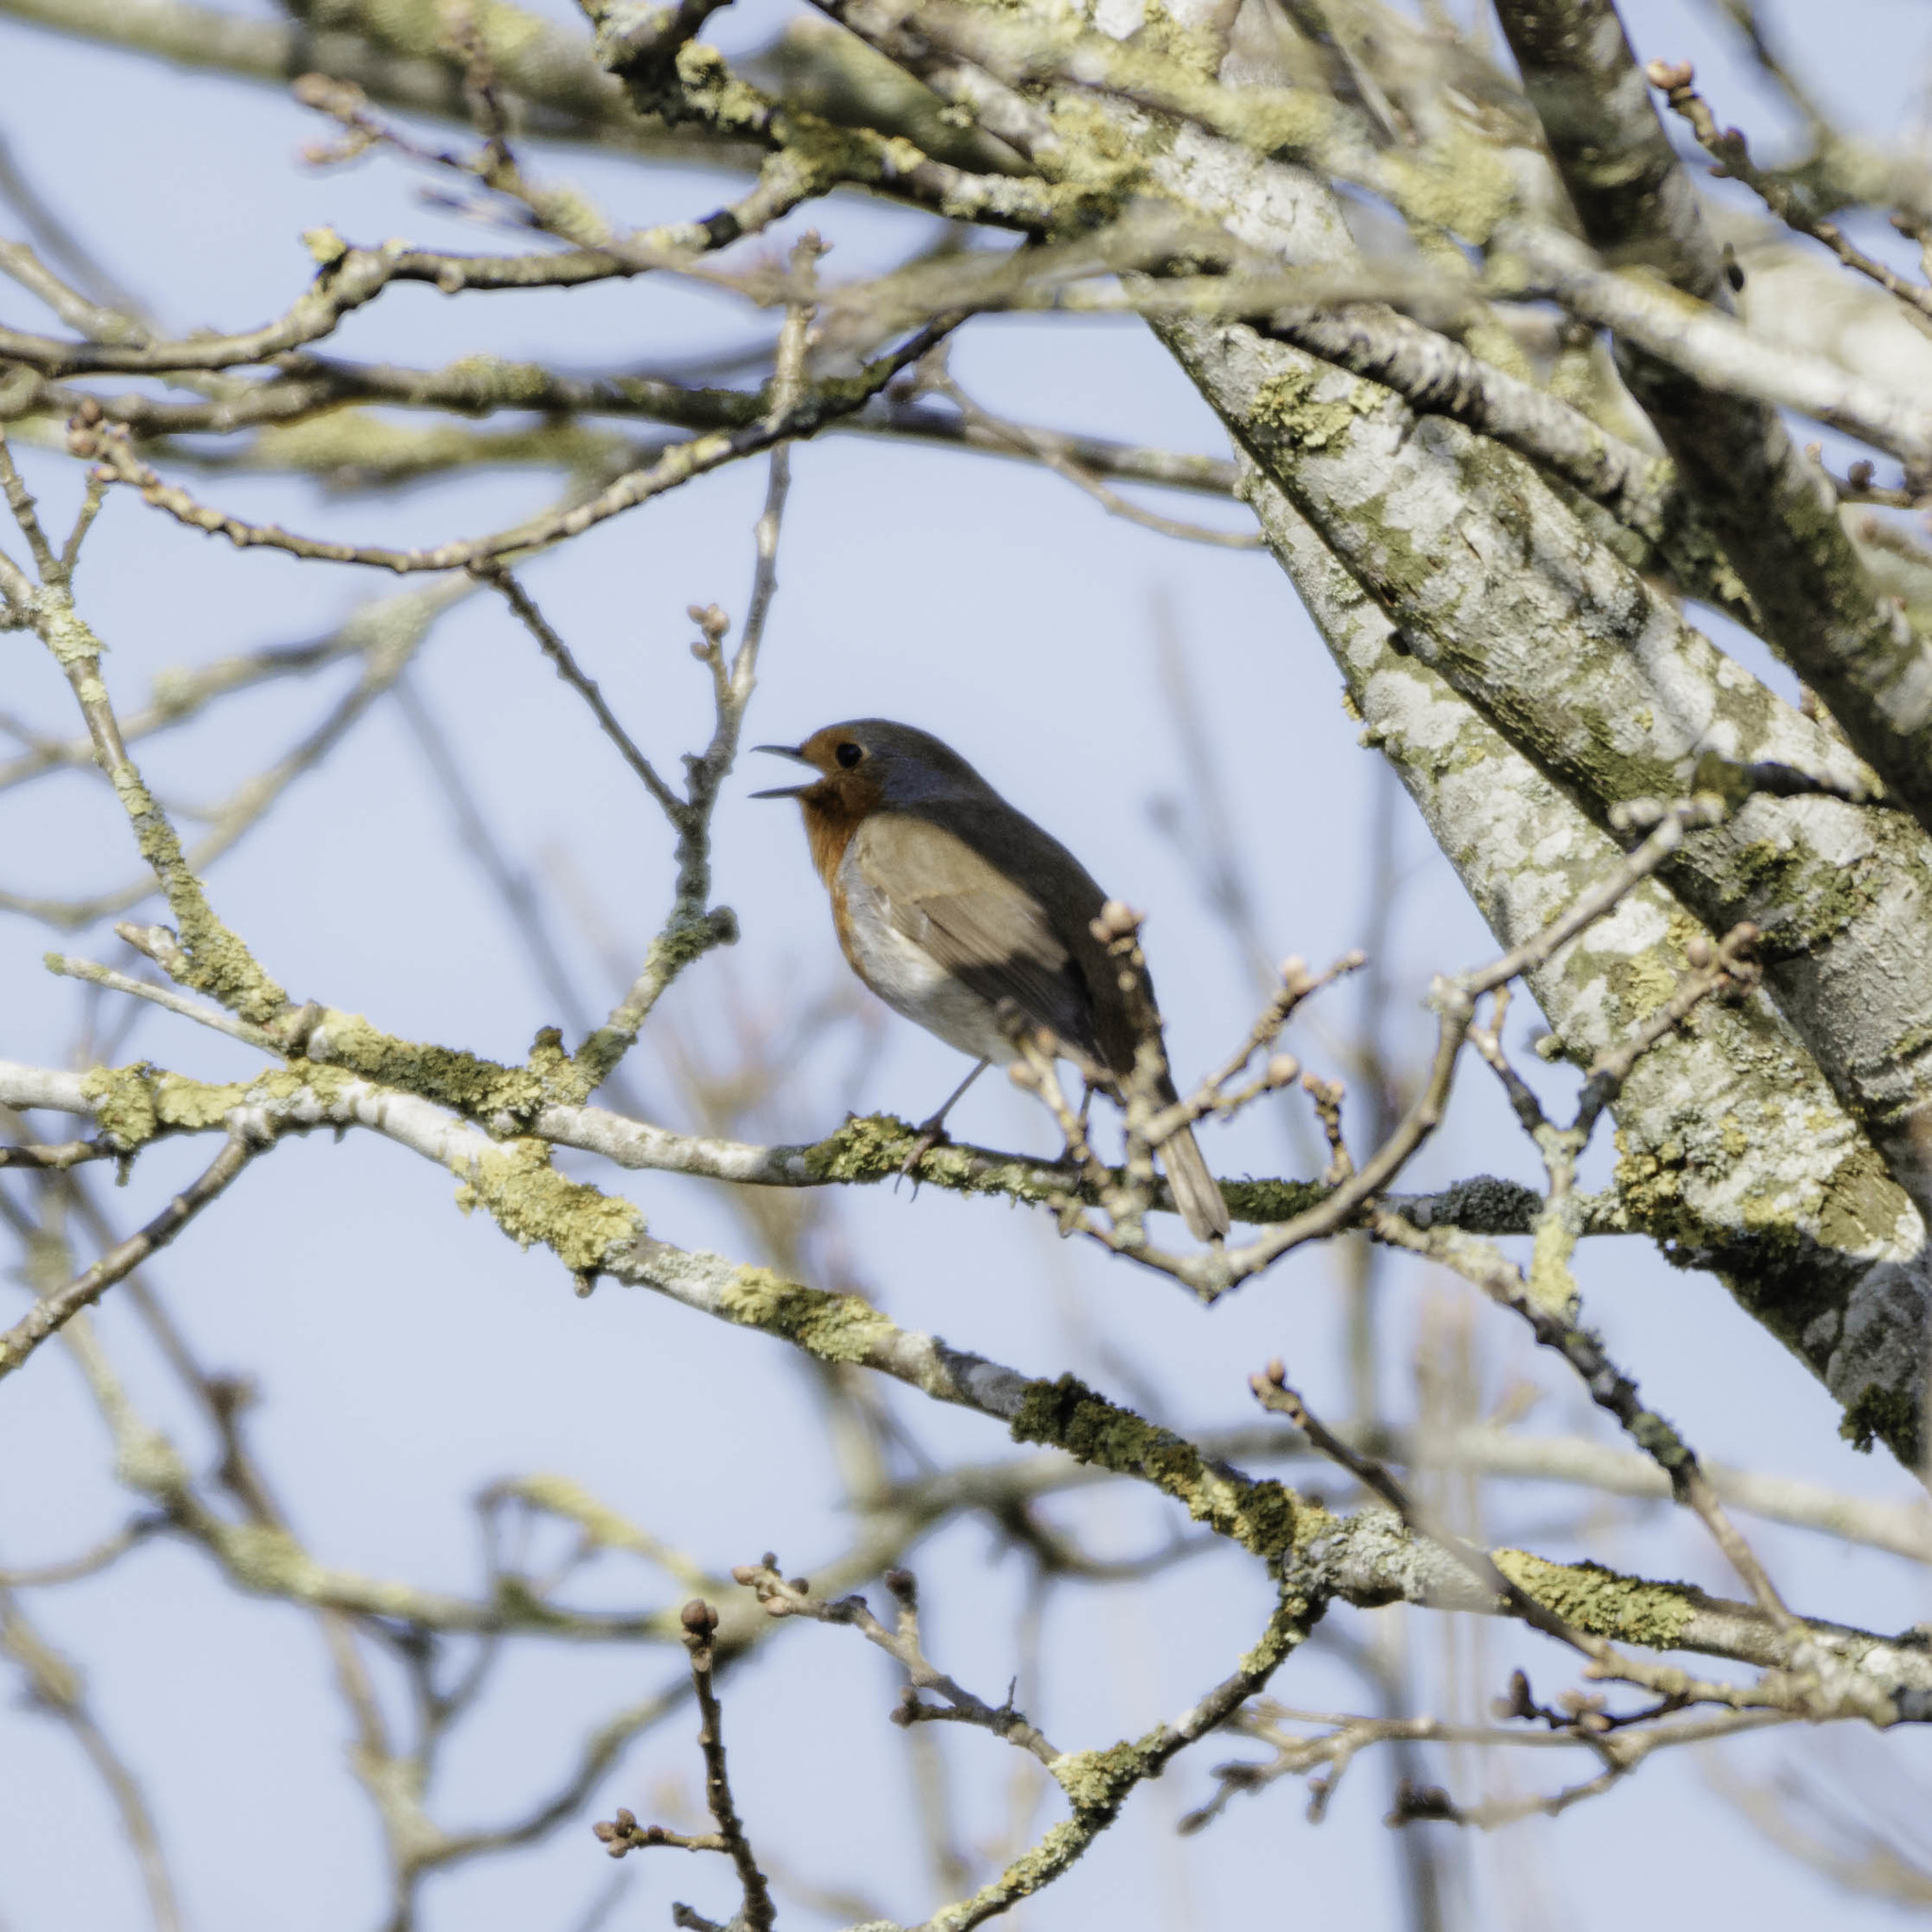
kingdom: Animalia
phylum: Chordata
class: Aves
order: Passeriformes
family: Muscicapidae
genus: Erithacus
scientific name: Erithacus rubecula
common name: European robin
